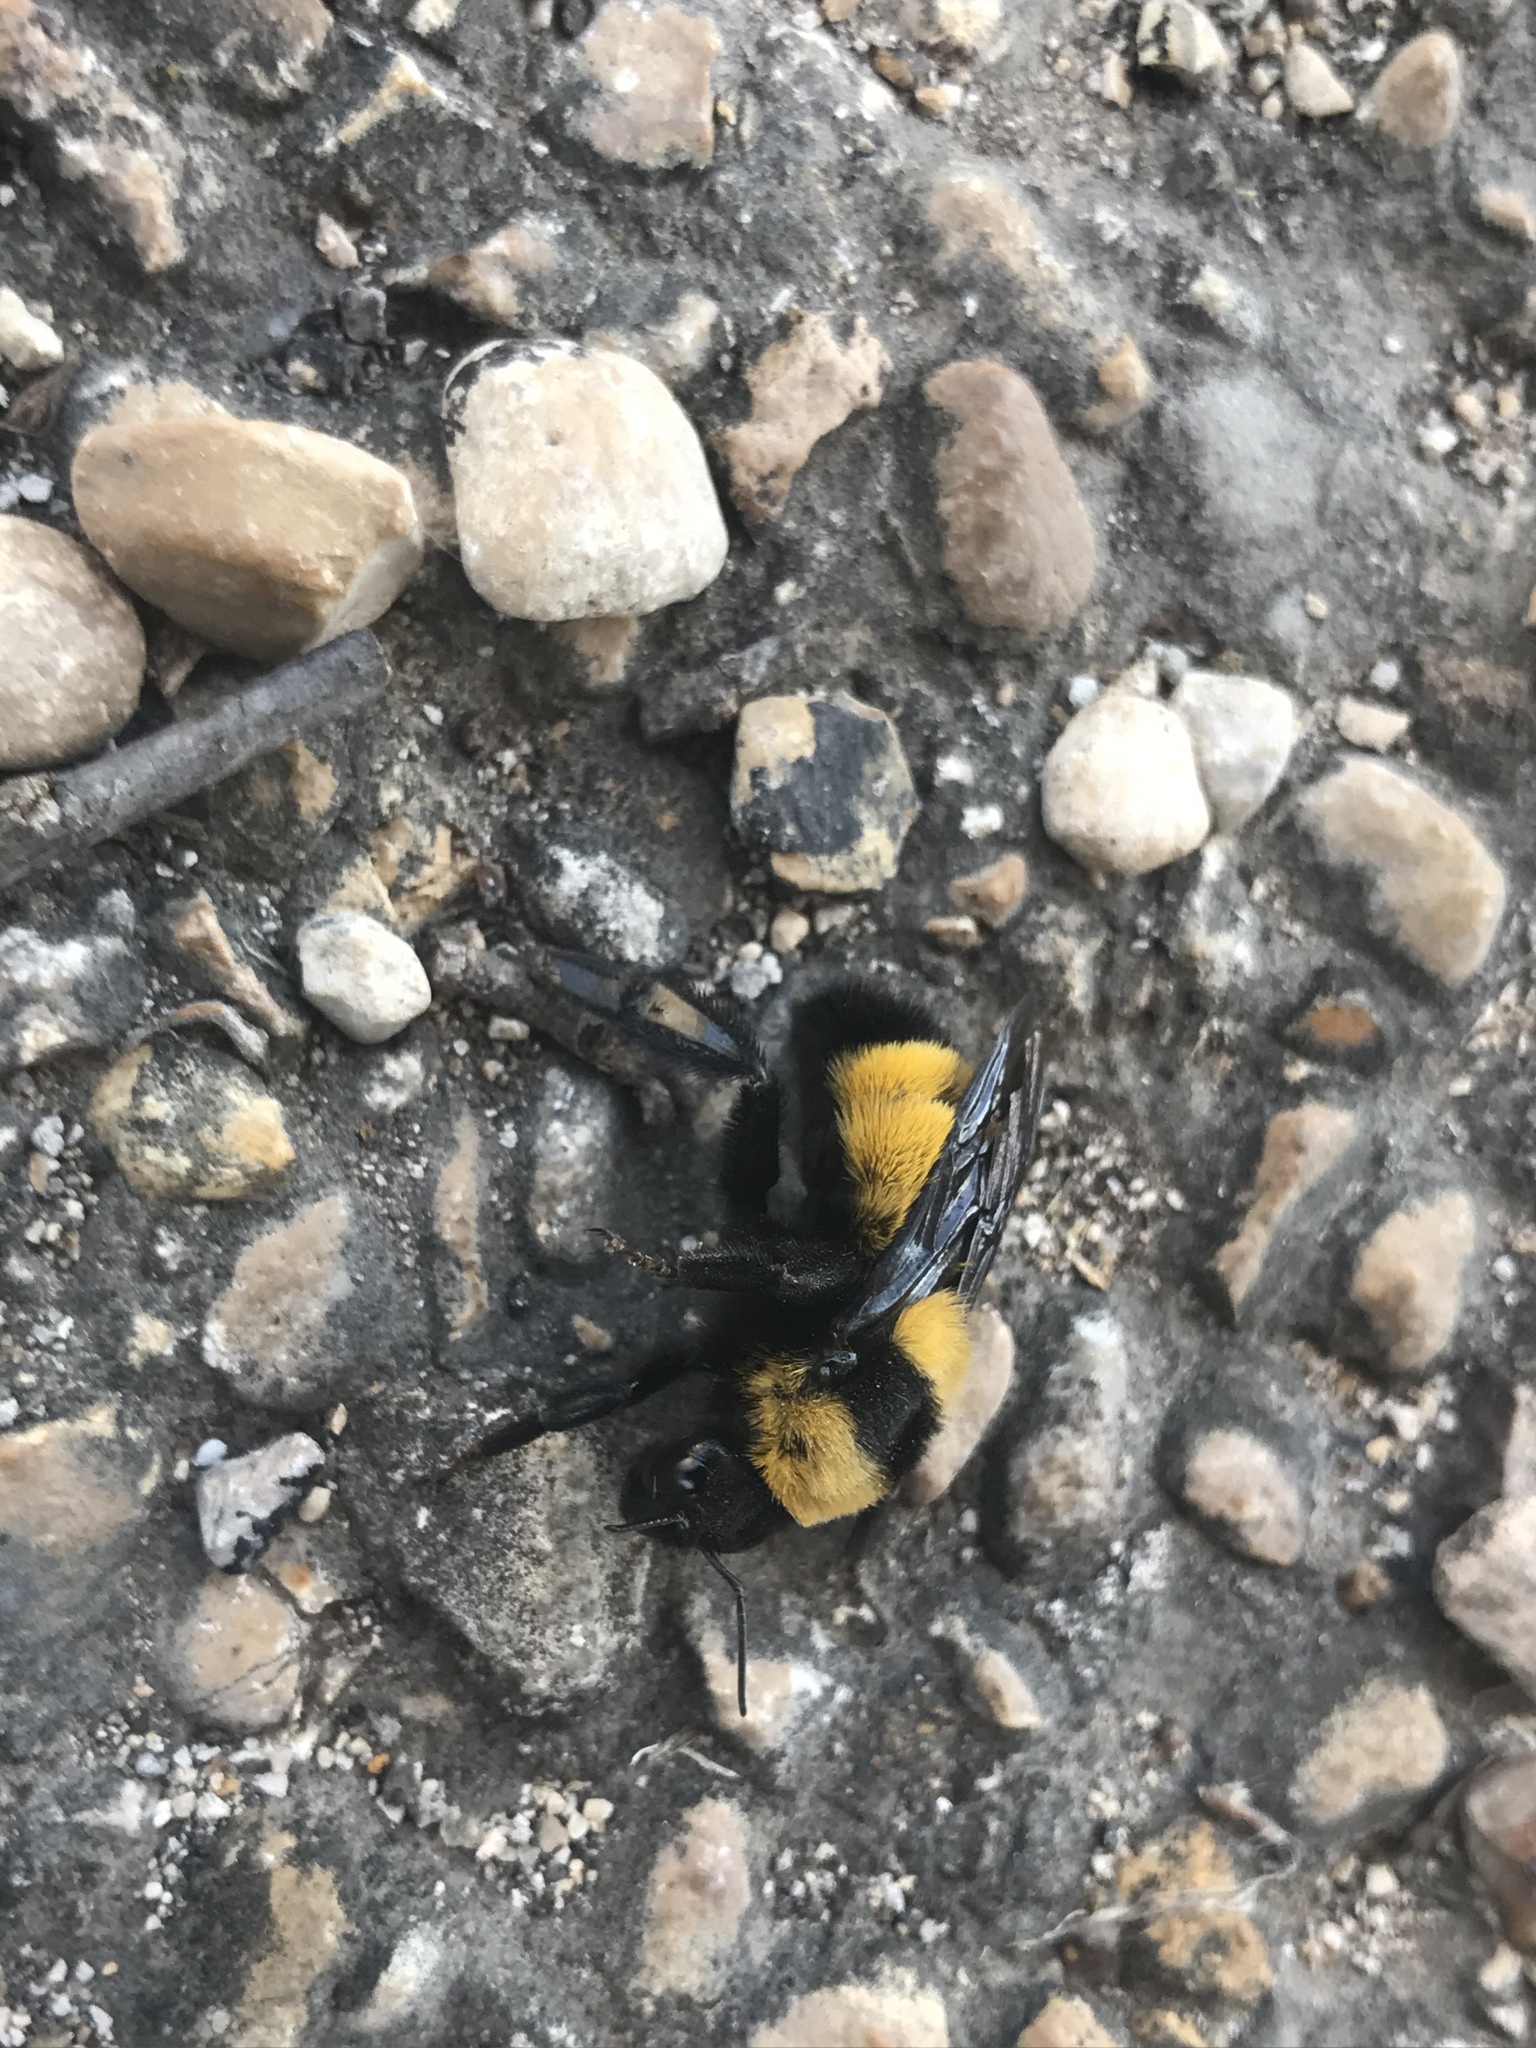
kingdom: Animalia
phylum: Arthropoda
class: Insecta
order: Hymenoptera
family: Apidae
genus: Bombus
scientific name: Bombus sonorus
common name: Sonoran bumble bee
